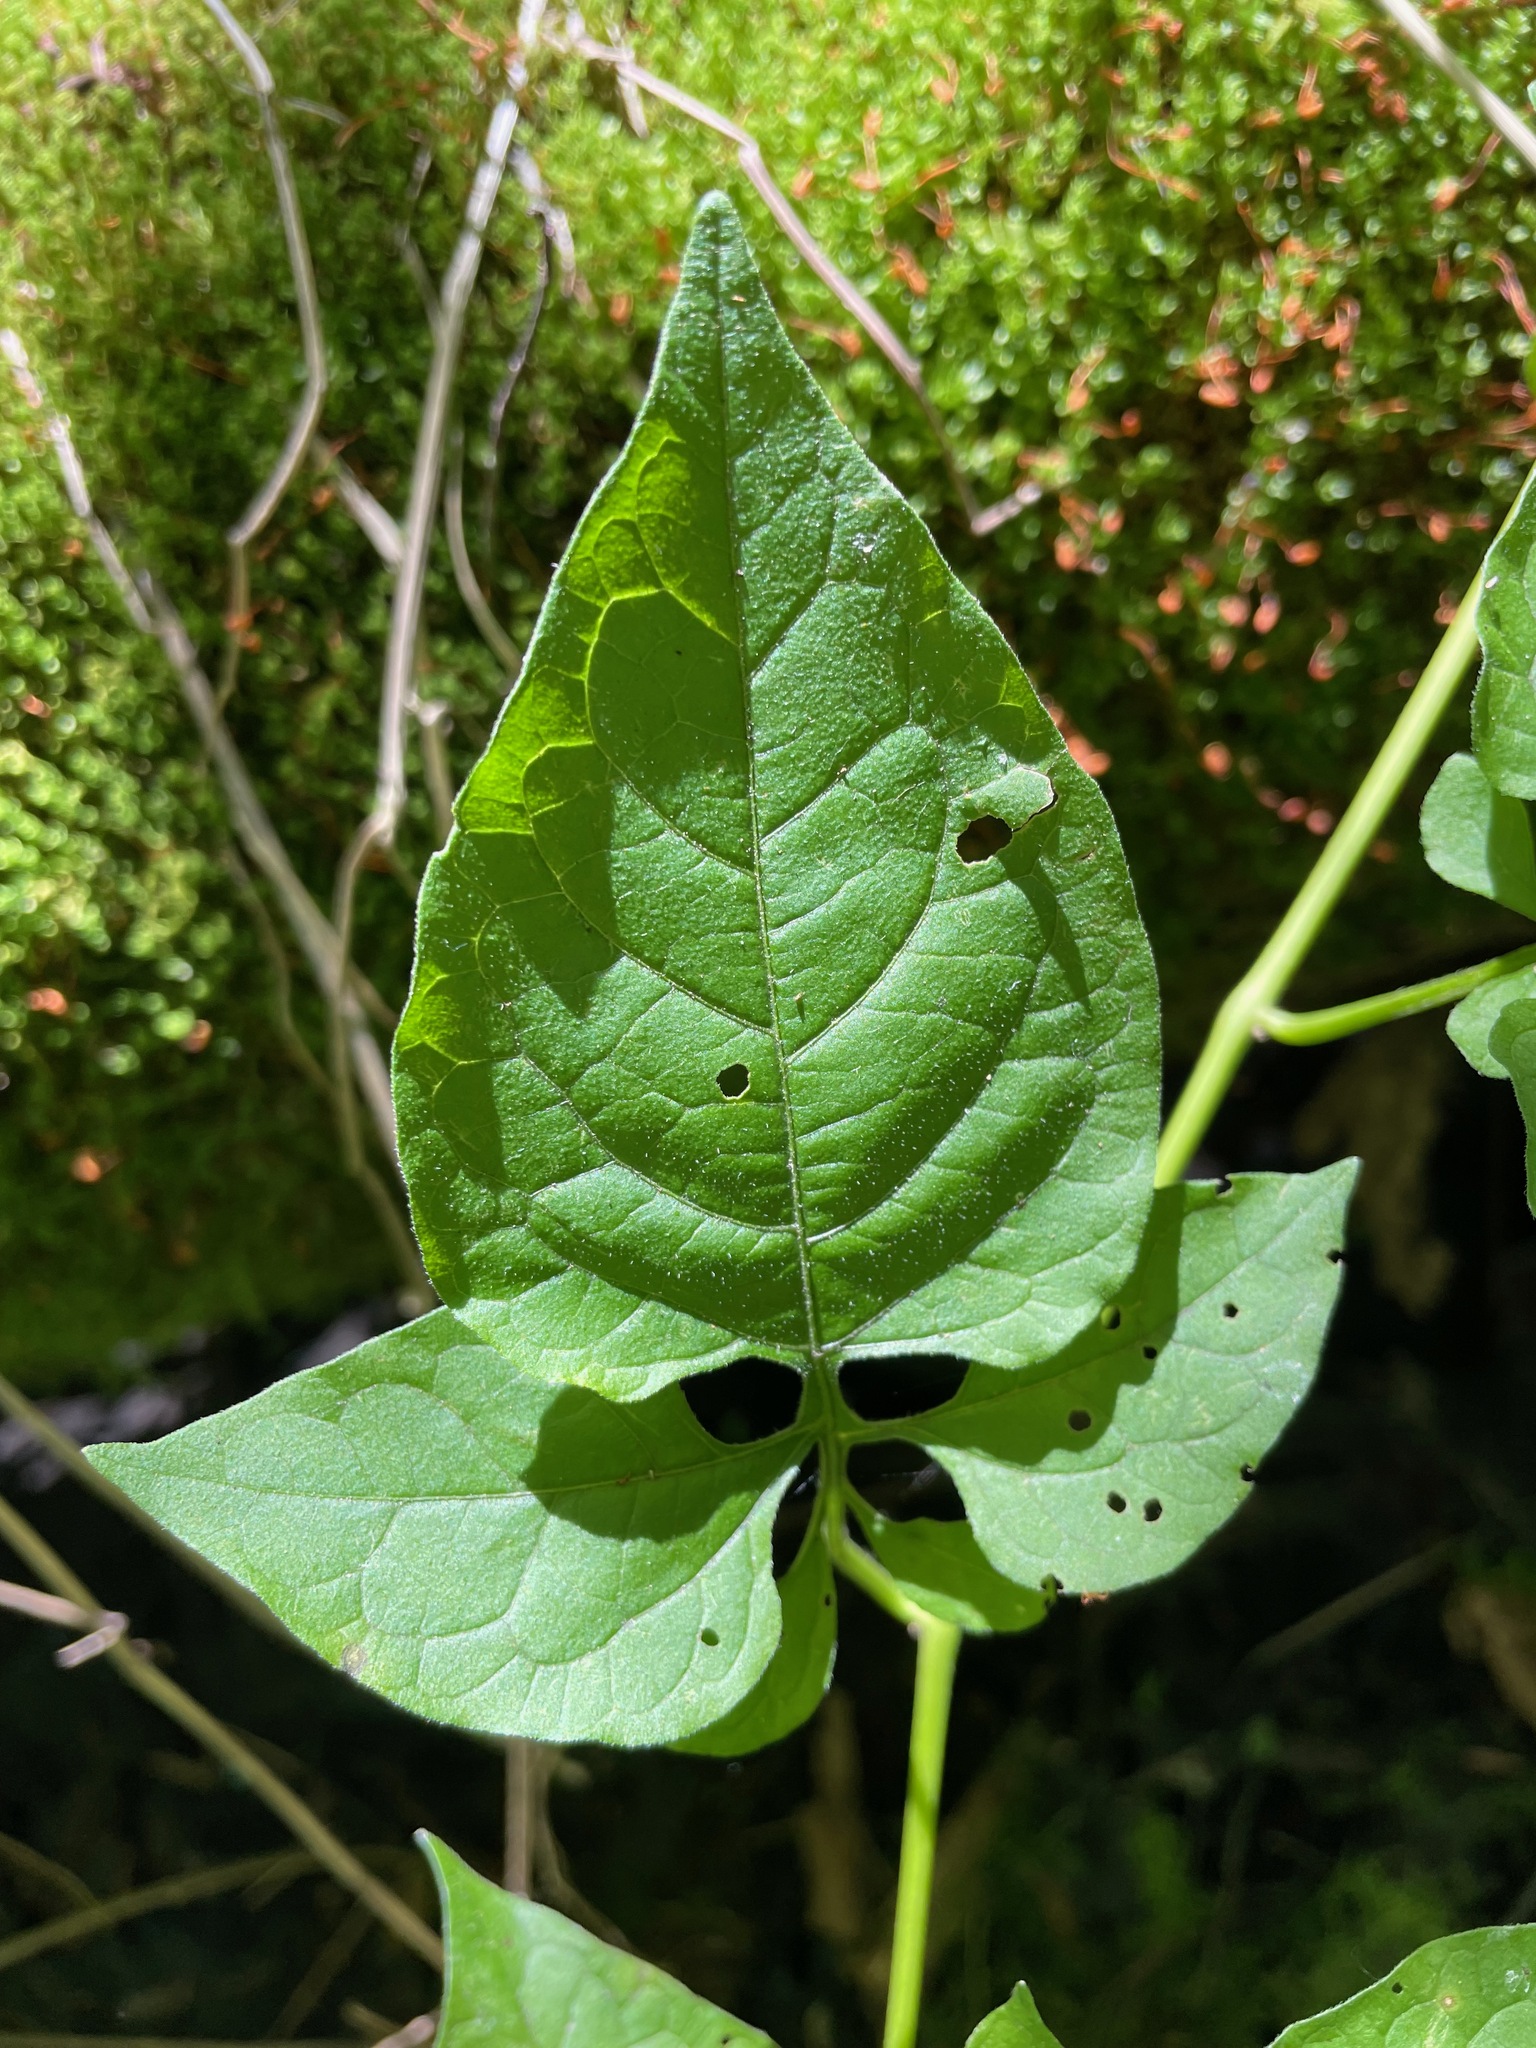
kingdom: Plantae
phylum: Tracheophyta
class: Magnoliopsida
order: Solanales
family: Solanaceae
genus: Solanum
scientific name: Solanum dulcamara
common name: Climbing nightshade
